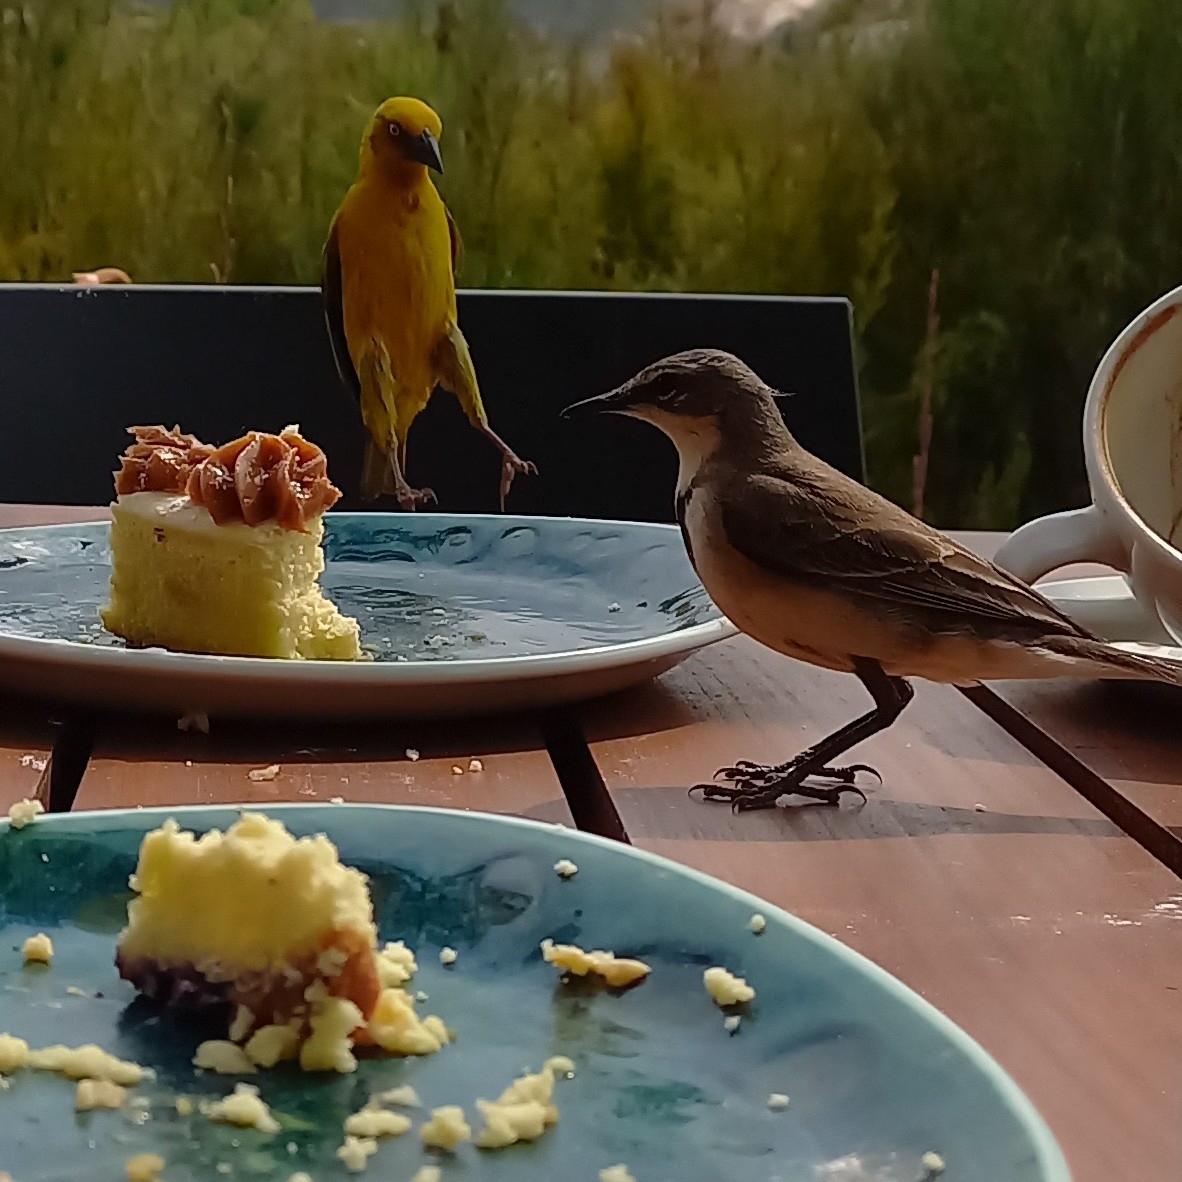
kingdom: Animalia
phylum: Chordata
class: Aves
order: Passeriformes
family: Motacillidae
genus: Motacilla
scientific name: Motacilla capensis
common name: Cape wagtail
